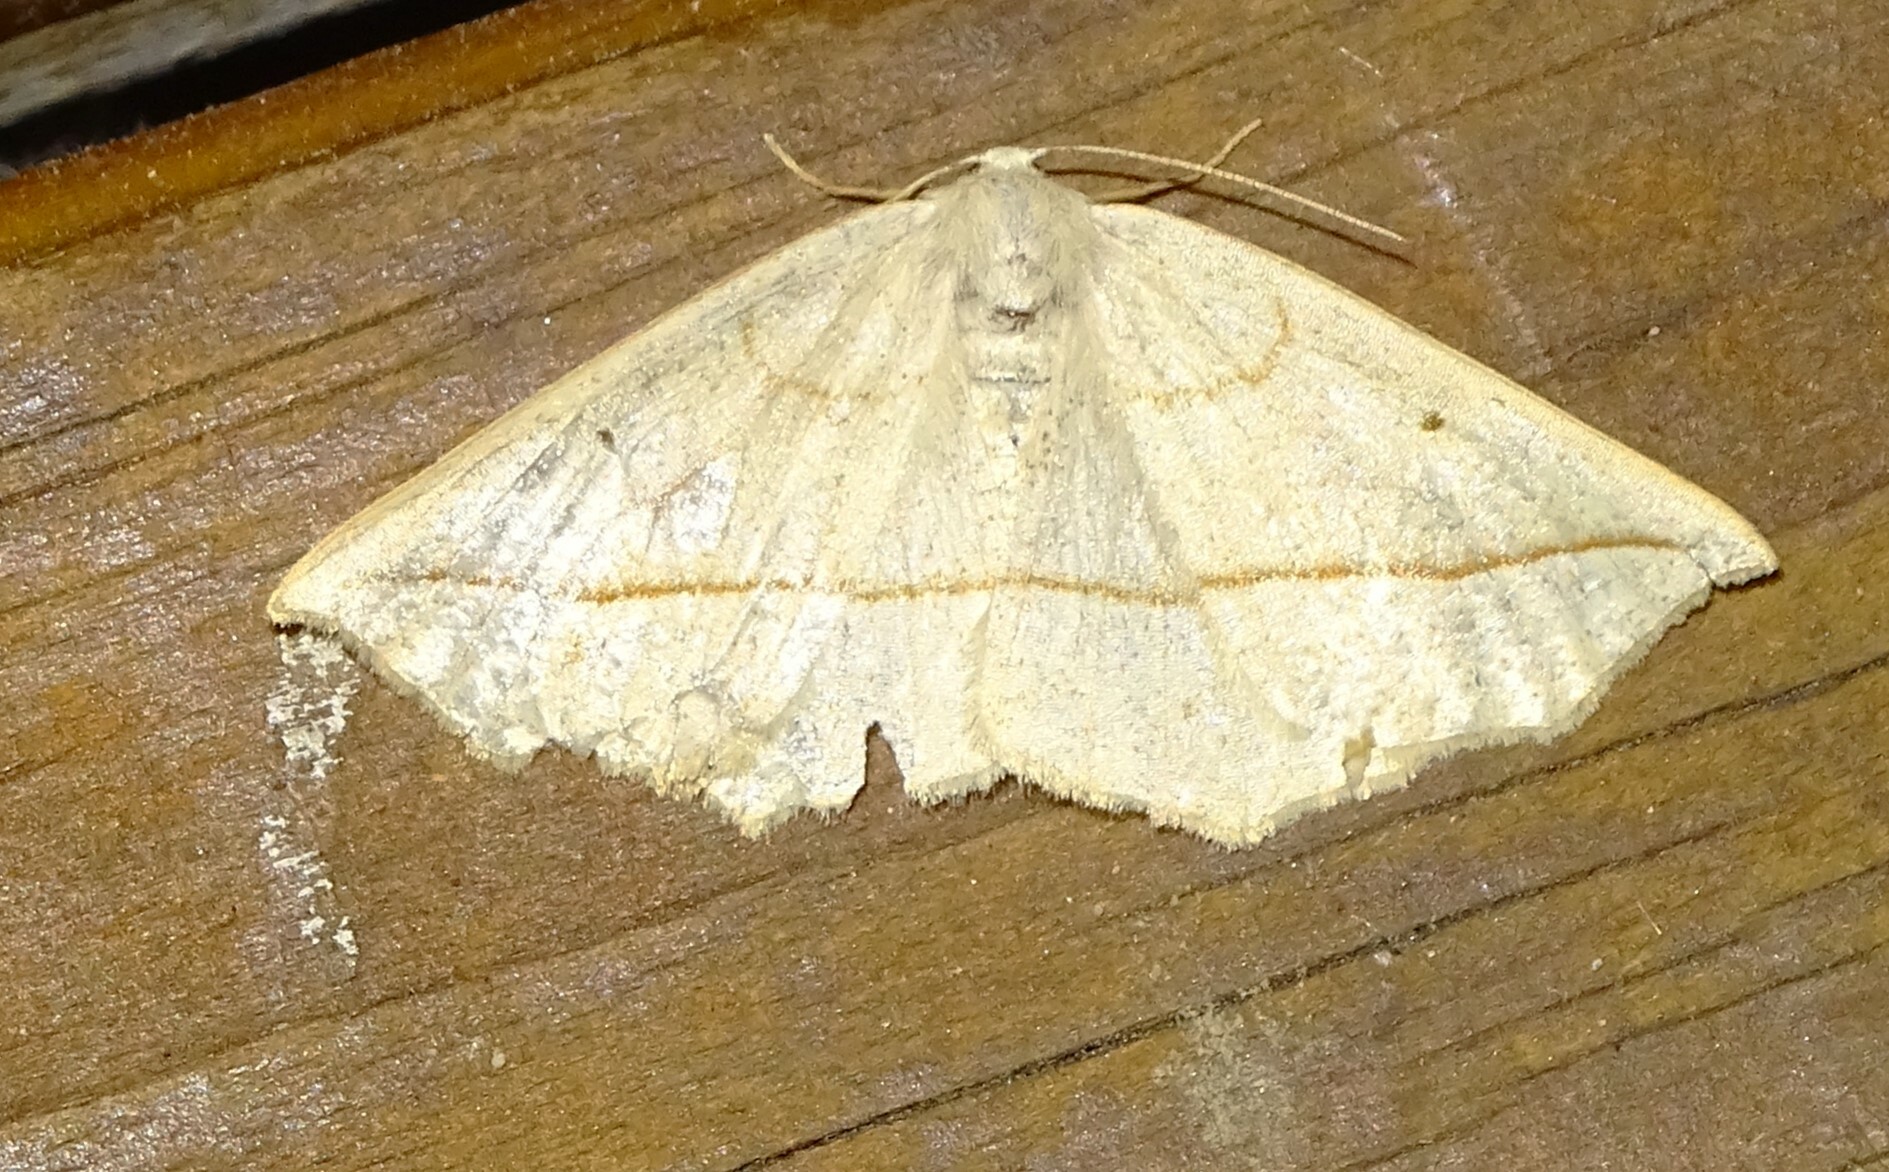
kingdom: Animalia
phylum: Arthropoda
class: Insecta
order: Lepidoptera
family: Geometridae
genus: Eusarca
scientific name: Eusarca confusaria
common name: Confused eusarca
